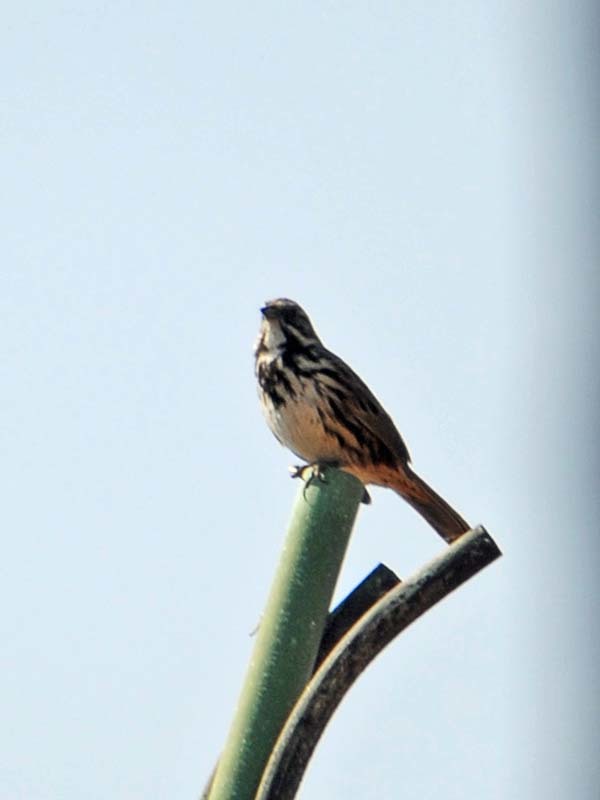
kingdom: Animalia
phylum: Chordata
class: Aves
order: Passeriformes
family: Passerellidae
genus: Melospiza
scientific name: Melospiza melodia
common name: Song sparrow
